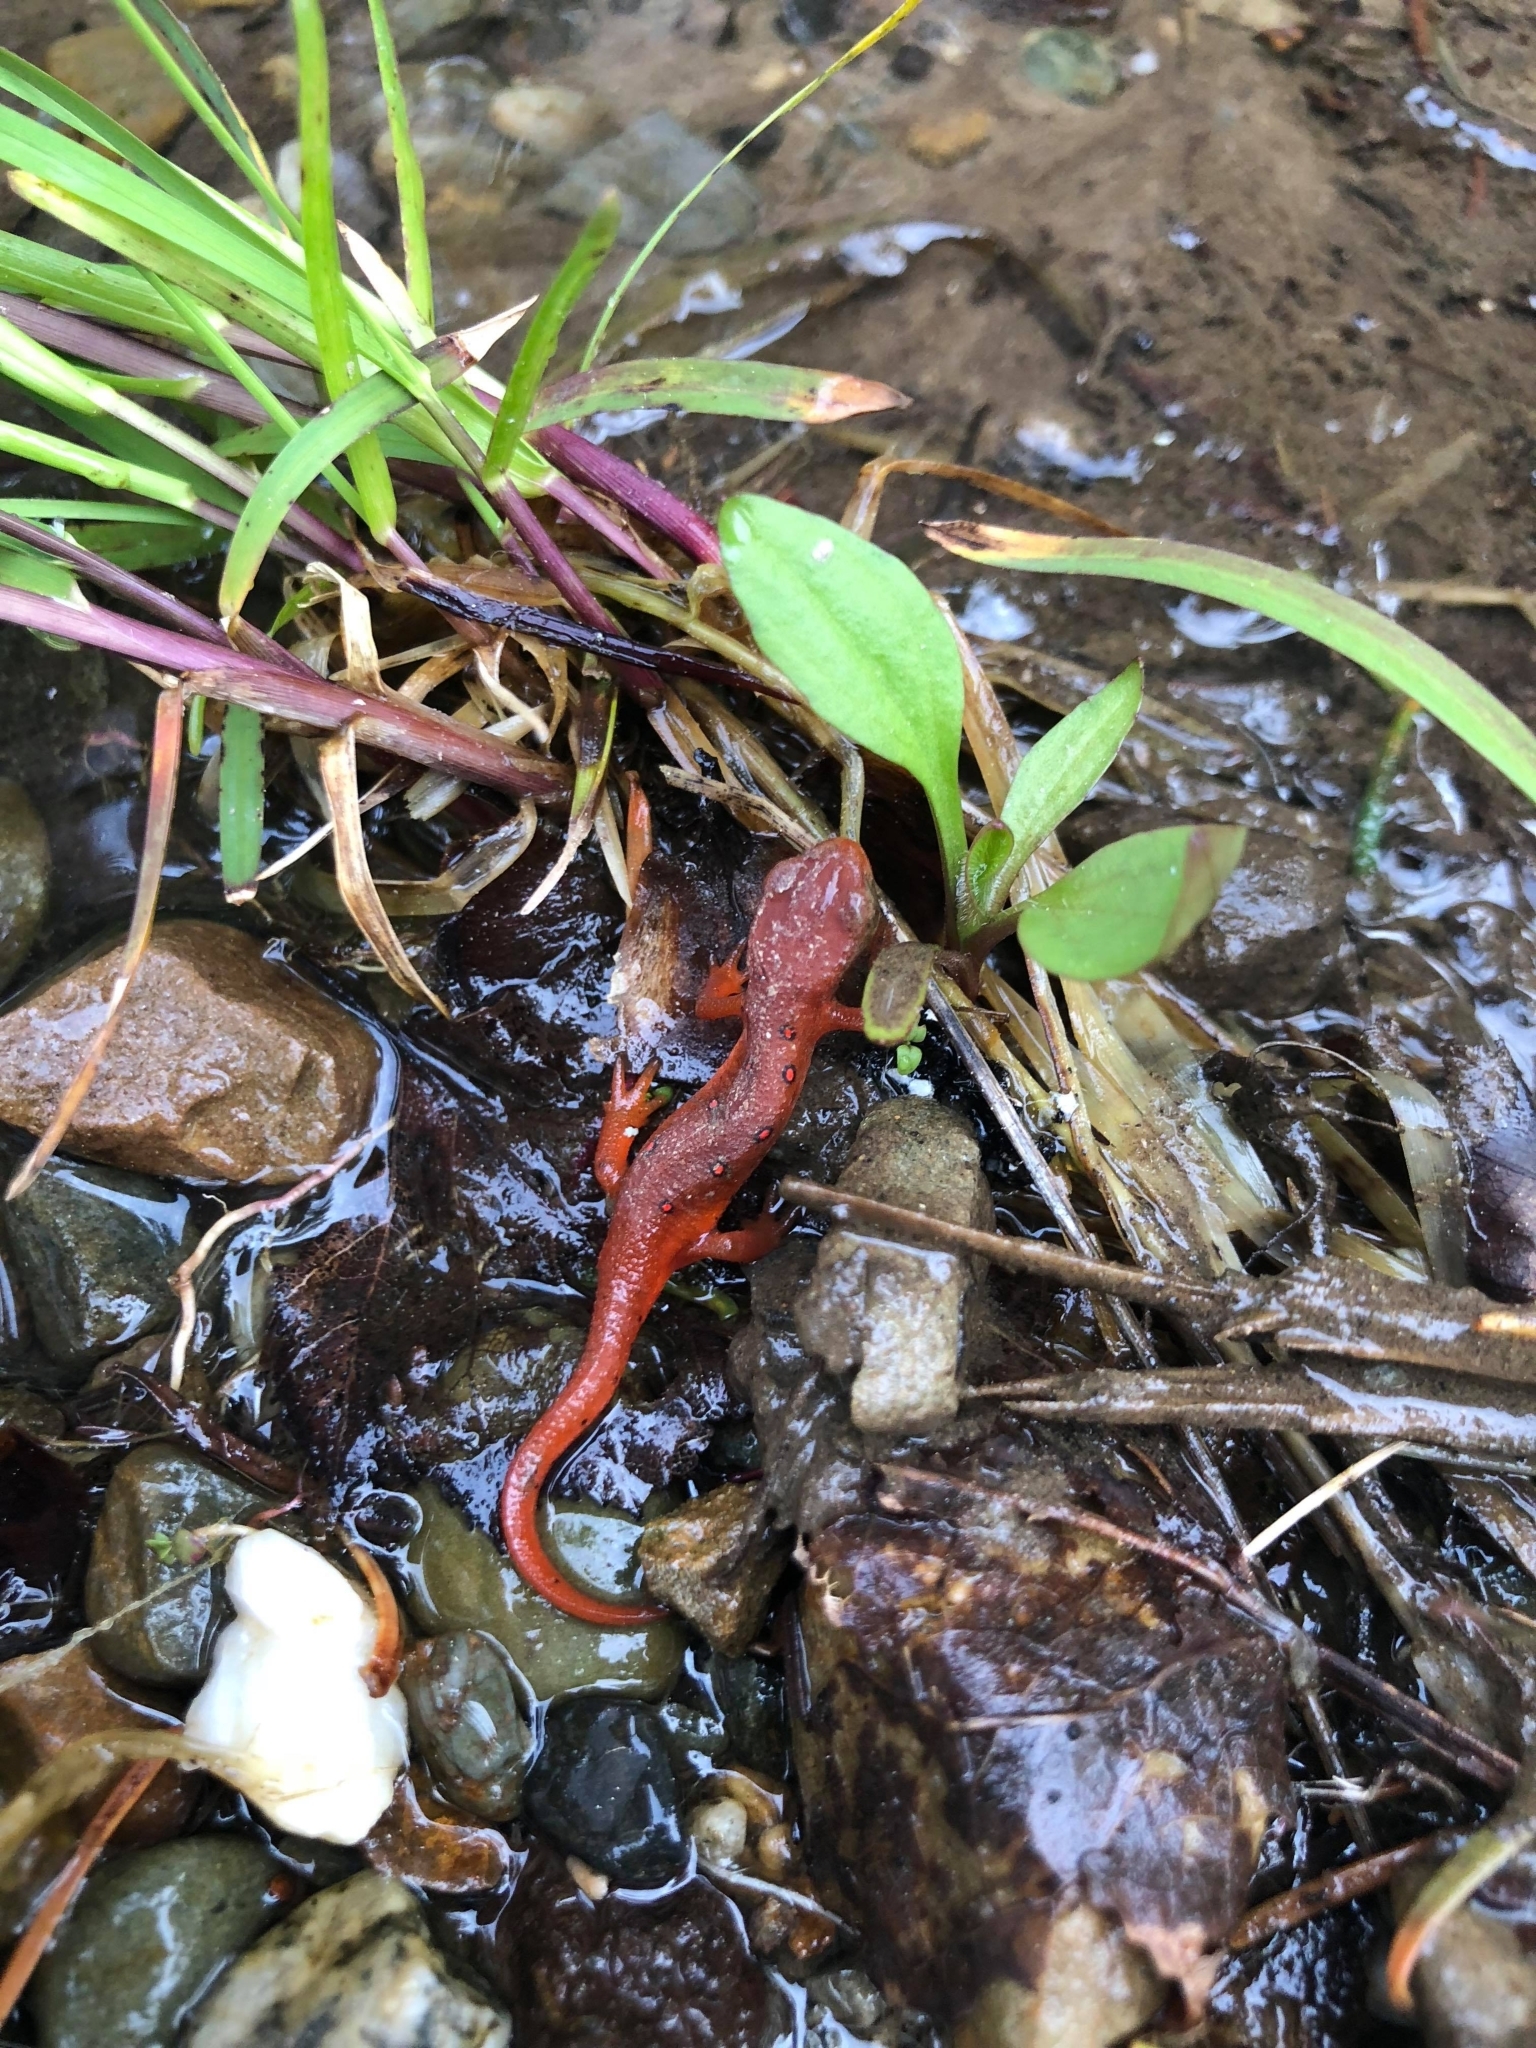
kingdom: Animalia
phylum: Chordata
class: Amphibia
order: Caudata
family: Salamandridae
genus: Notophthalmus
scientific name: Notophthalmus viridescens
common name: Eastern newt
